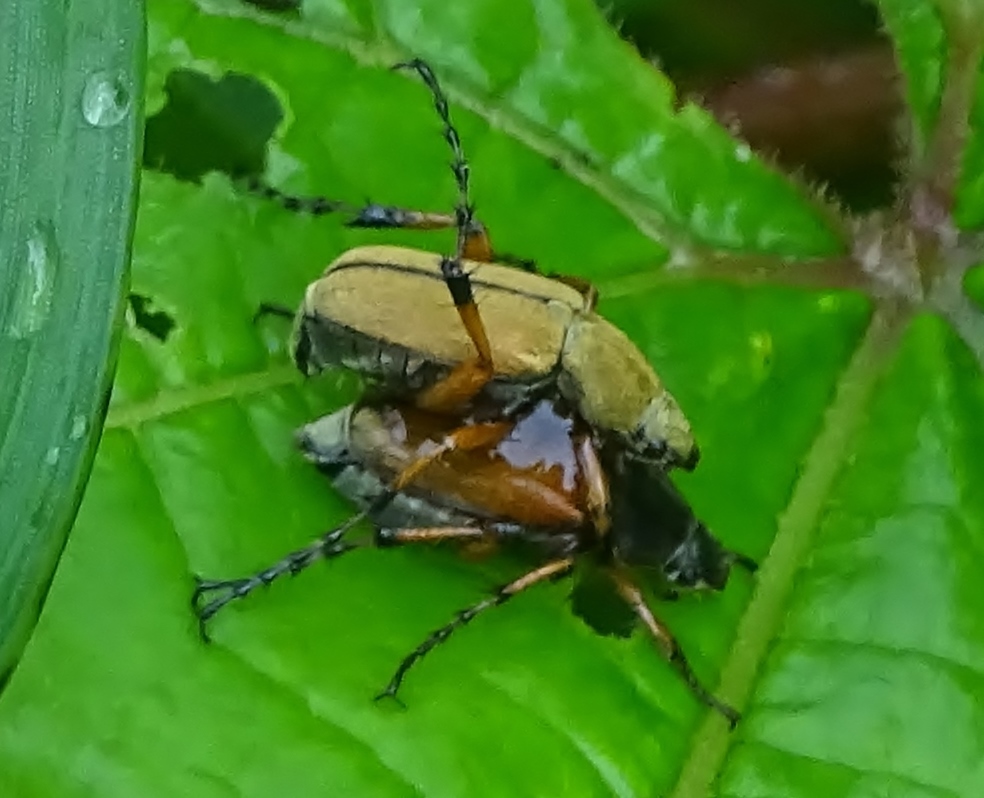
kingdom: Animalia
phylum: Arthropoda
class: Insecta
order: Coleoptera
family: Scarabaeidae
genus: Macrodactylus
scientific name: Macrodactylus subspinosus
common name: American rose chafer
